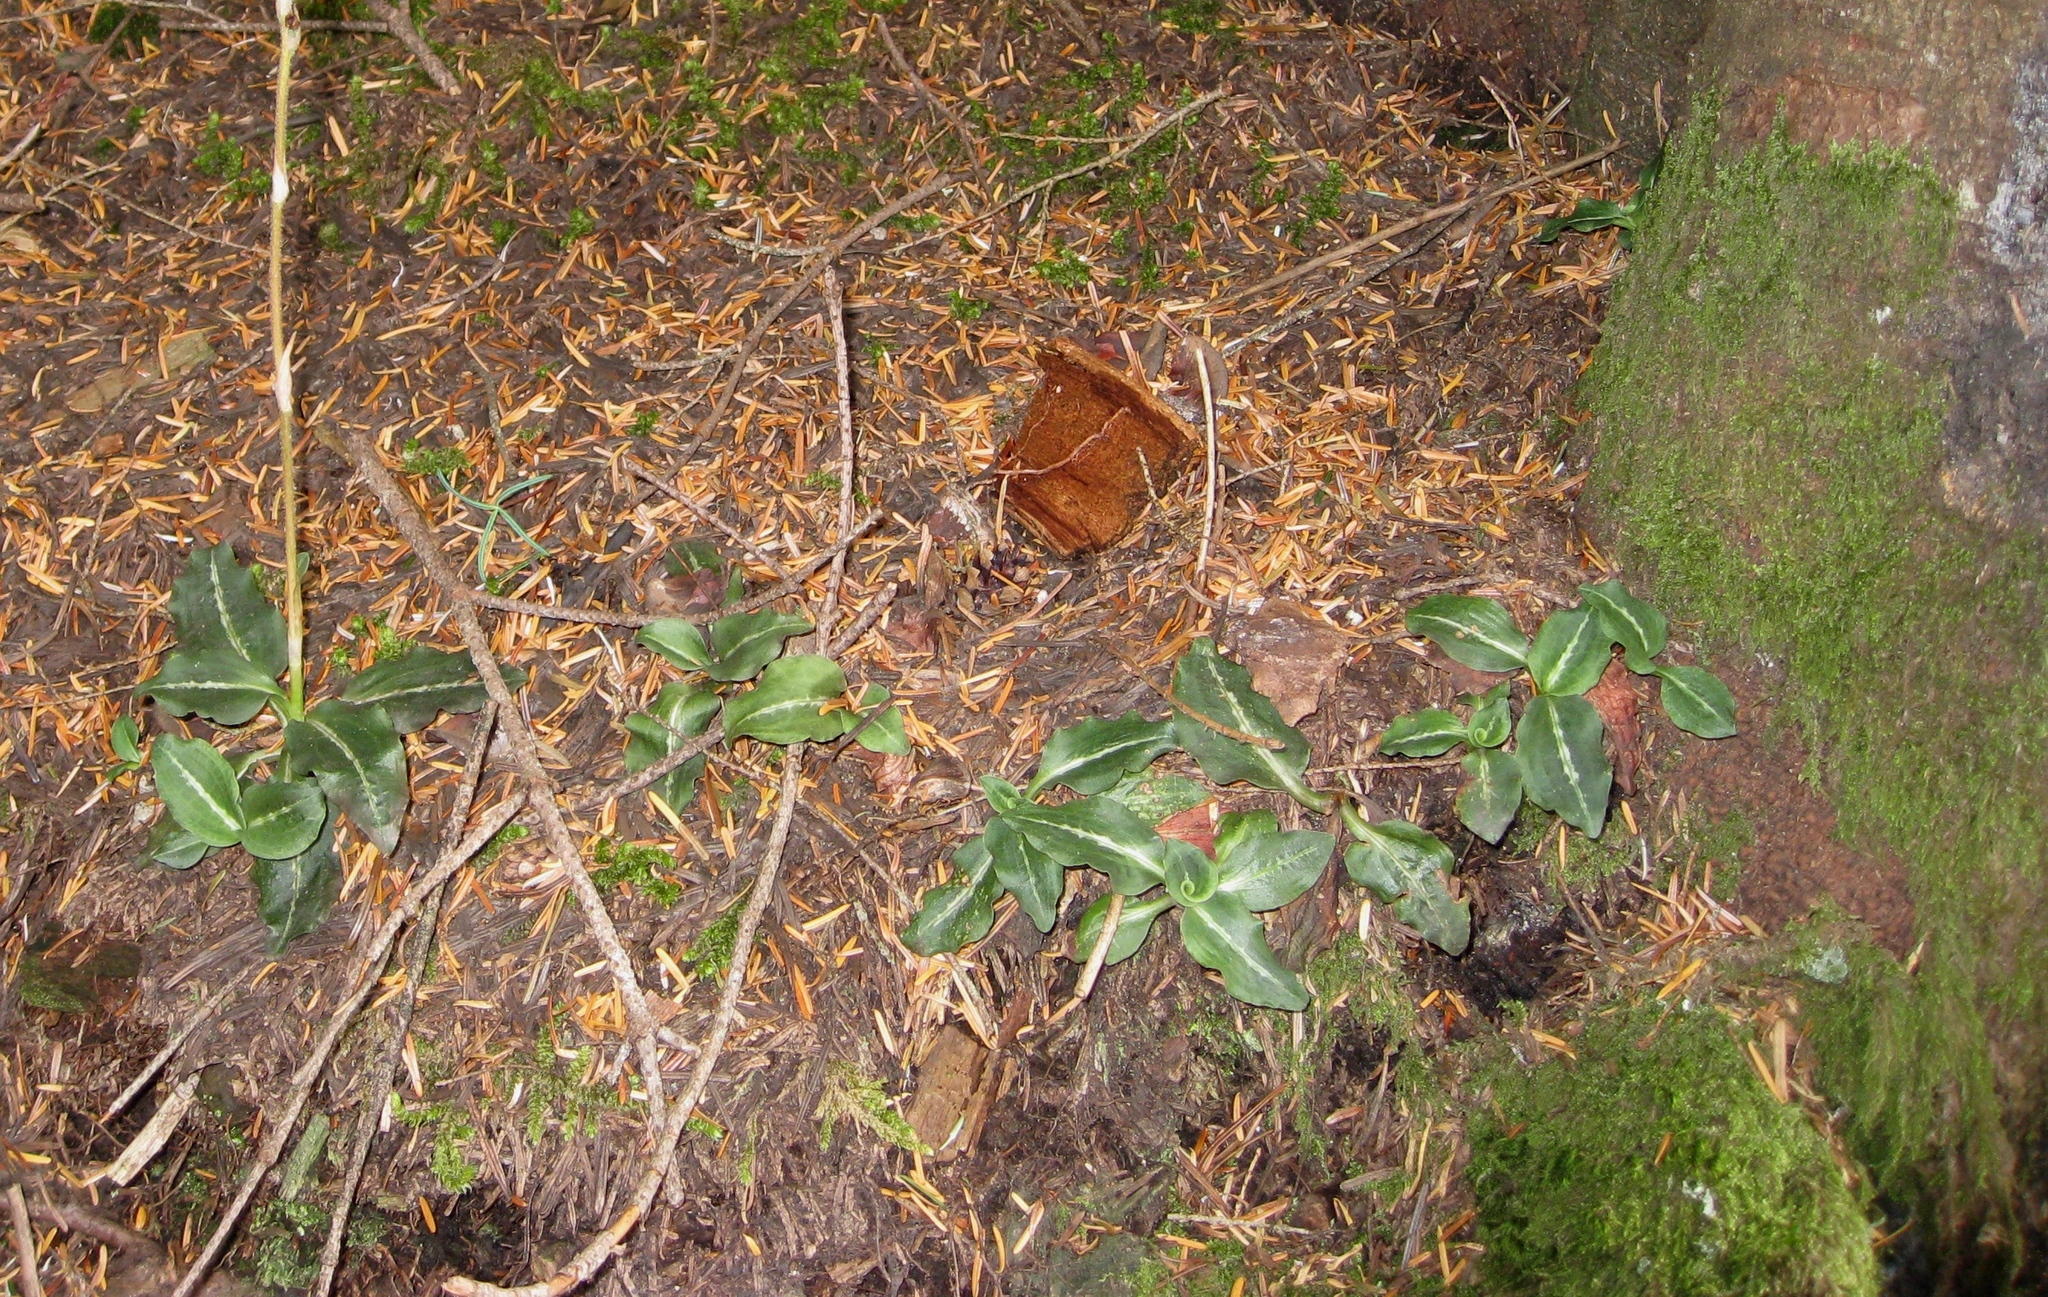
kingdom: Plantae
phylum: Tracheophyta
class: Liliopsida
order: Asparagales
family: Orchidaceae
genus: Goodyera
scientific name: Goodyera oblongifolia
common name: Giant rattlesnake-plantain
